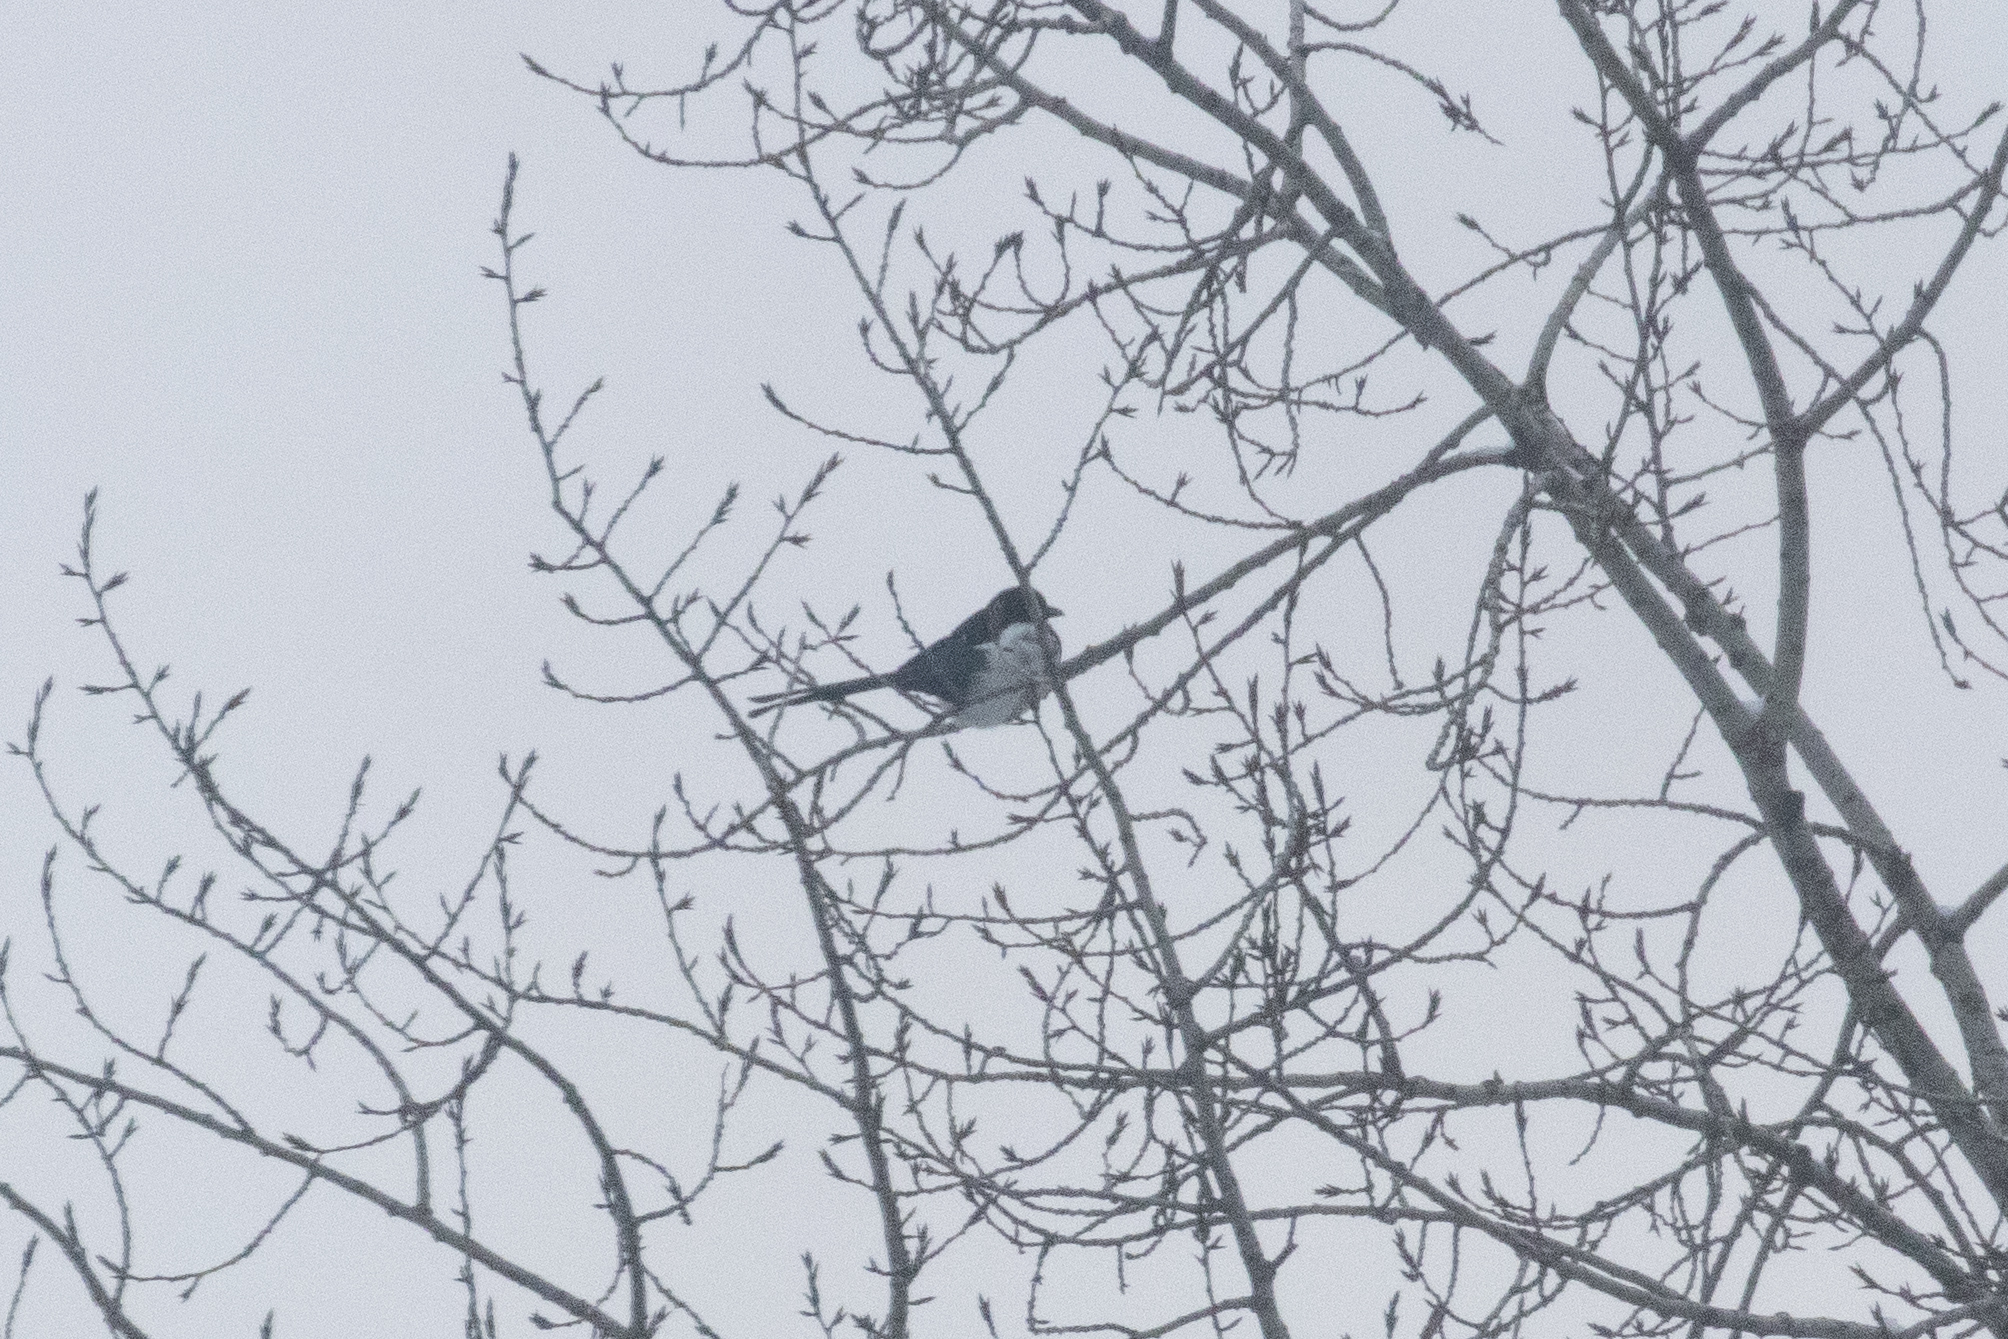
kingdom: Animalia
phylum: Chordata
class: Aves
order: Passeriformes
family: Corvidae
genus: Pica
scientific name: Pica pica
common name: Eurasian magpie
